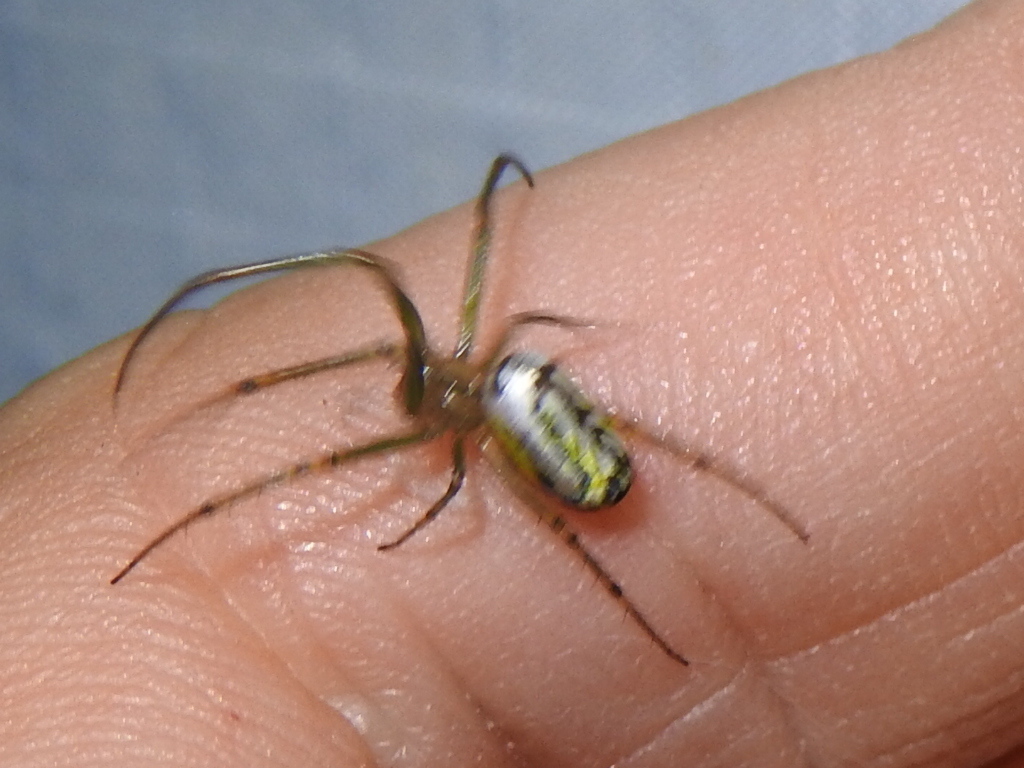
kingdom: Animalia
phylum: Arthropoda
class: Arachnida
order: Araneae
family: Tetragnathidae
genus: Leucauge
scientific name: Leucauge venusta
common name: Longjawed orb weavers
